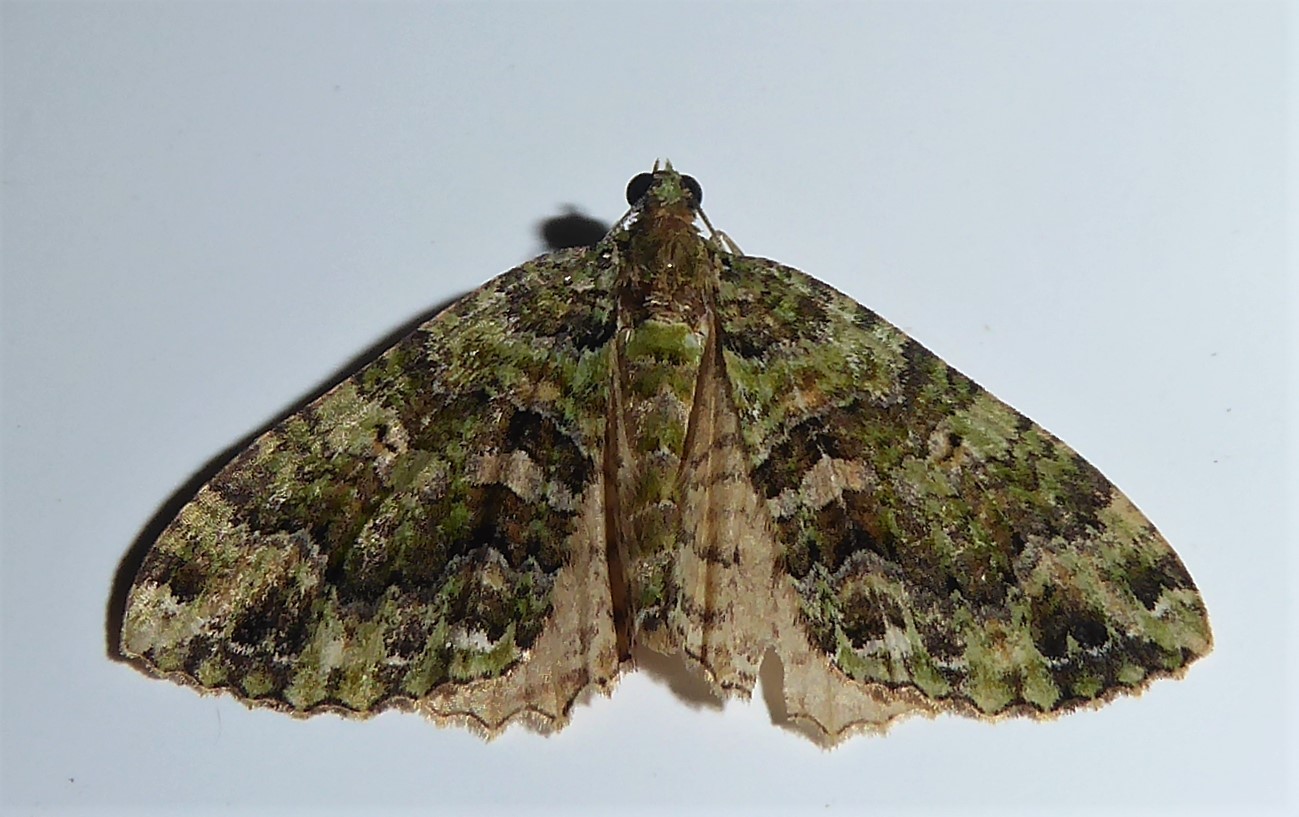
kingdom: Animalia
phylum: Arthropoda
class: Insecta
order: Lepidoptera
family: Geometridae
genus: Austrocidaria
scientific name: Austrocidaria similata
